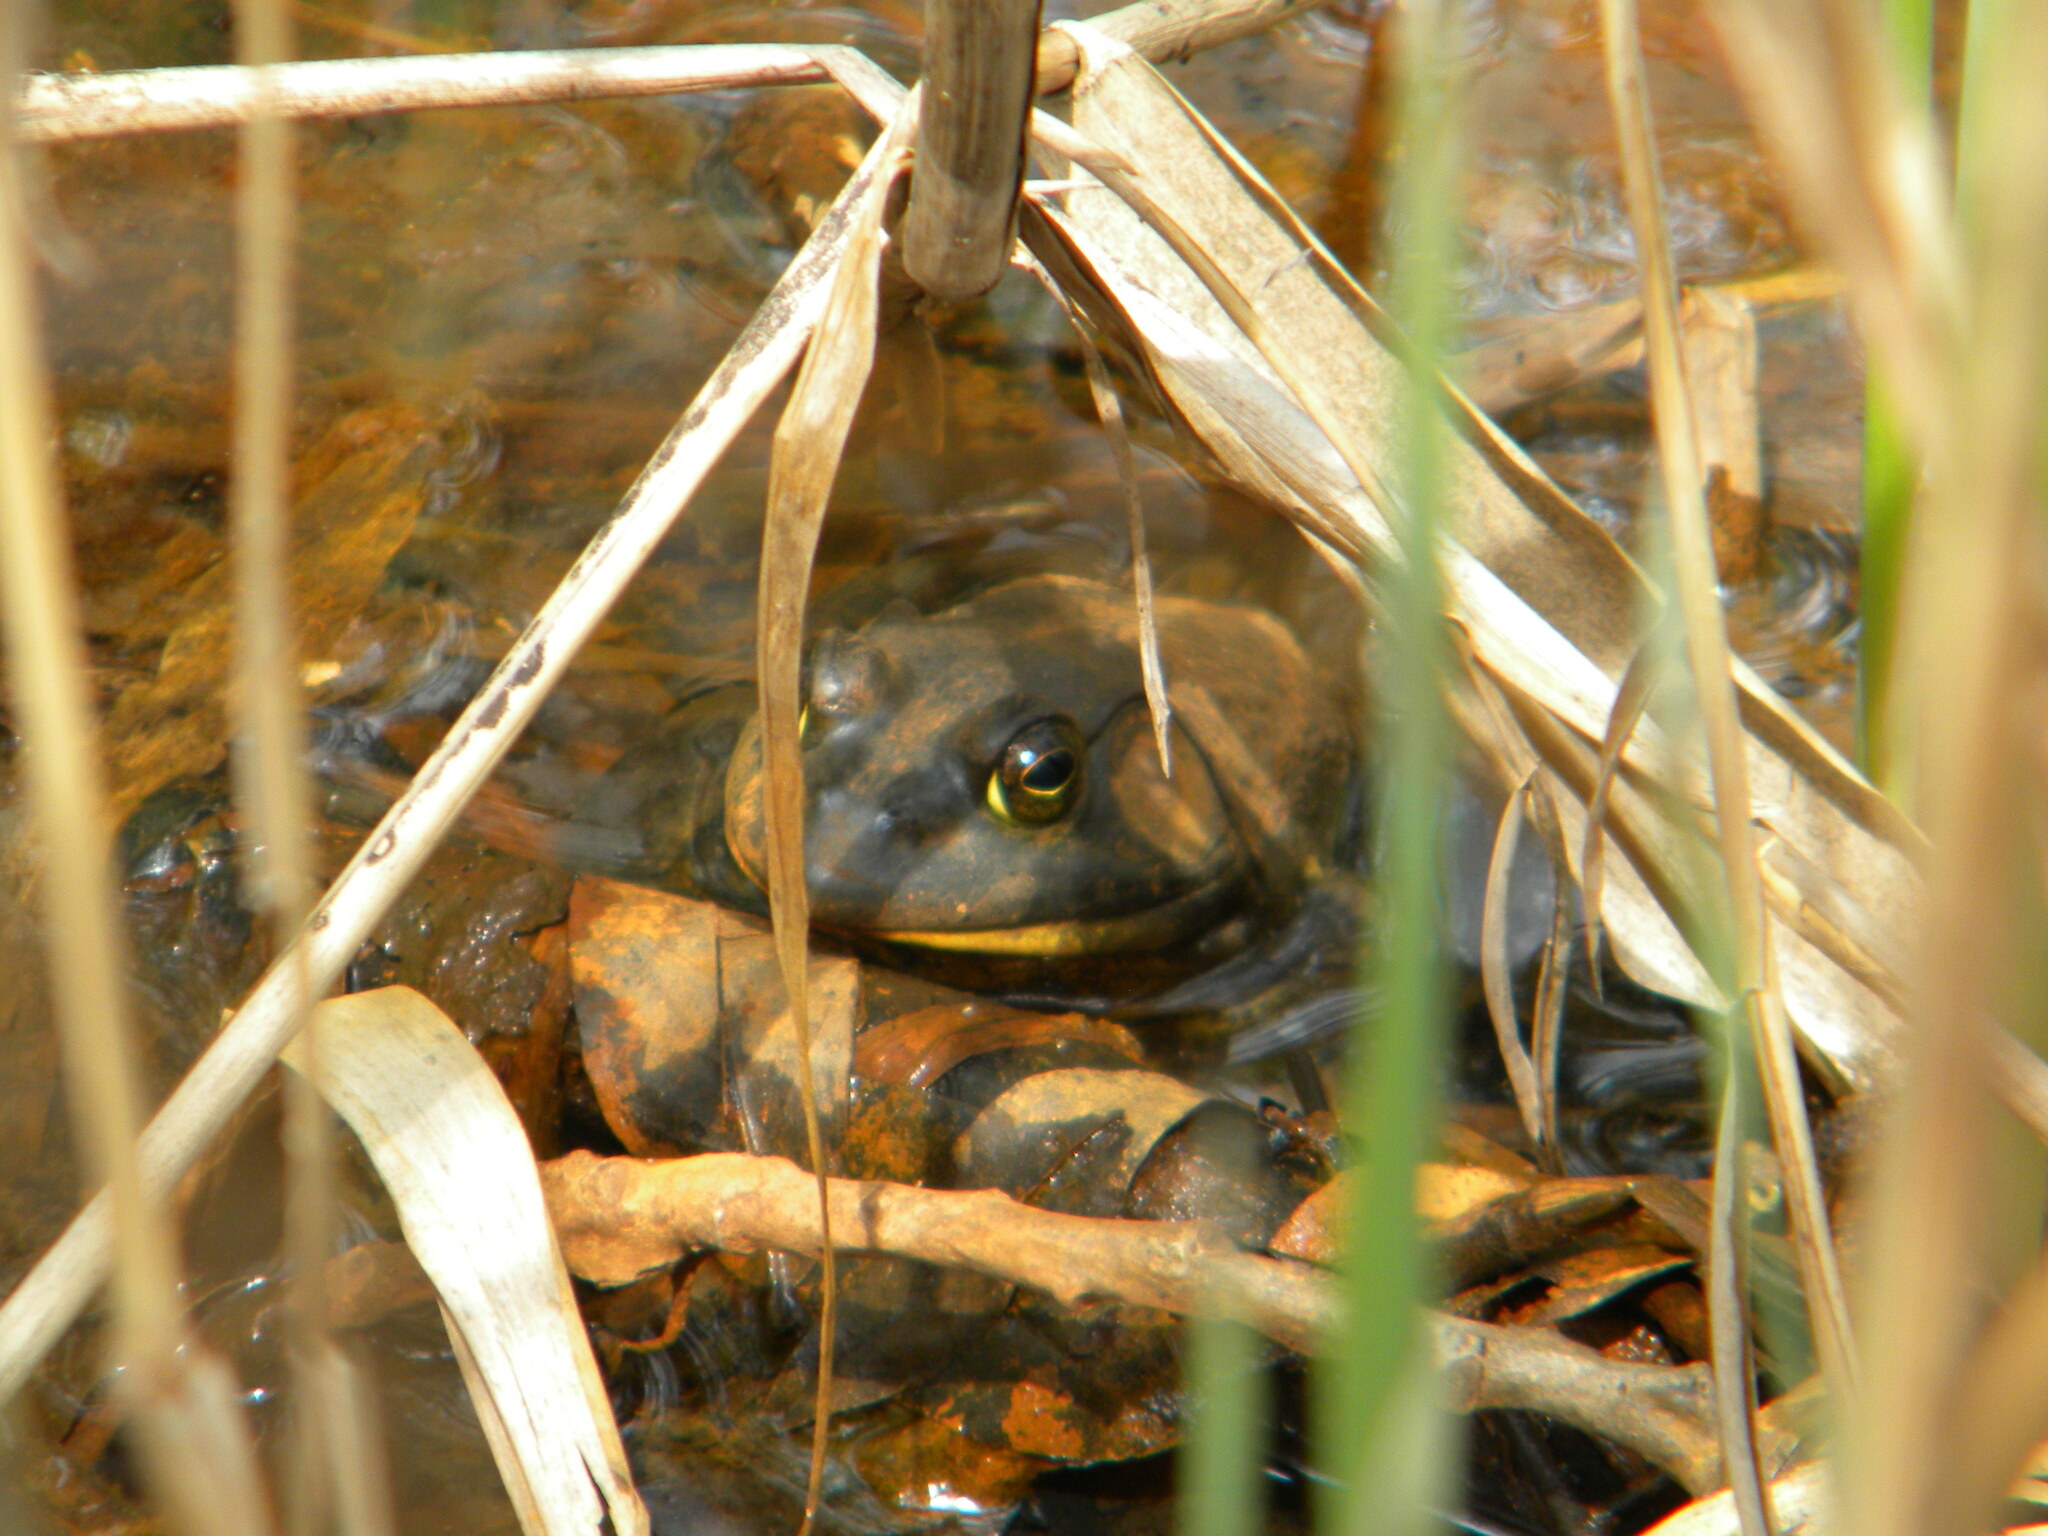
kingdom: Animalia
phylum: Chordata
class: Amphibia
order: Anura
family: Ranidae
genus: Lithobates
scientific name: Lithobates catesbeianus
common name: American bullfrog
